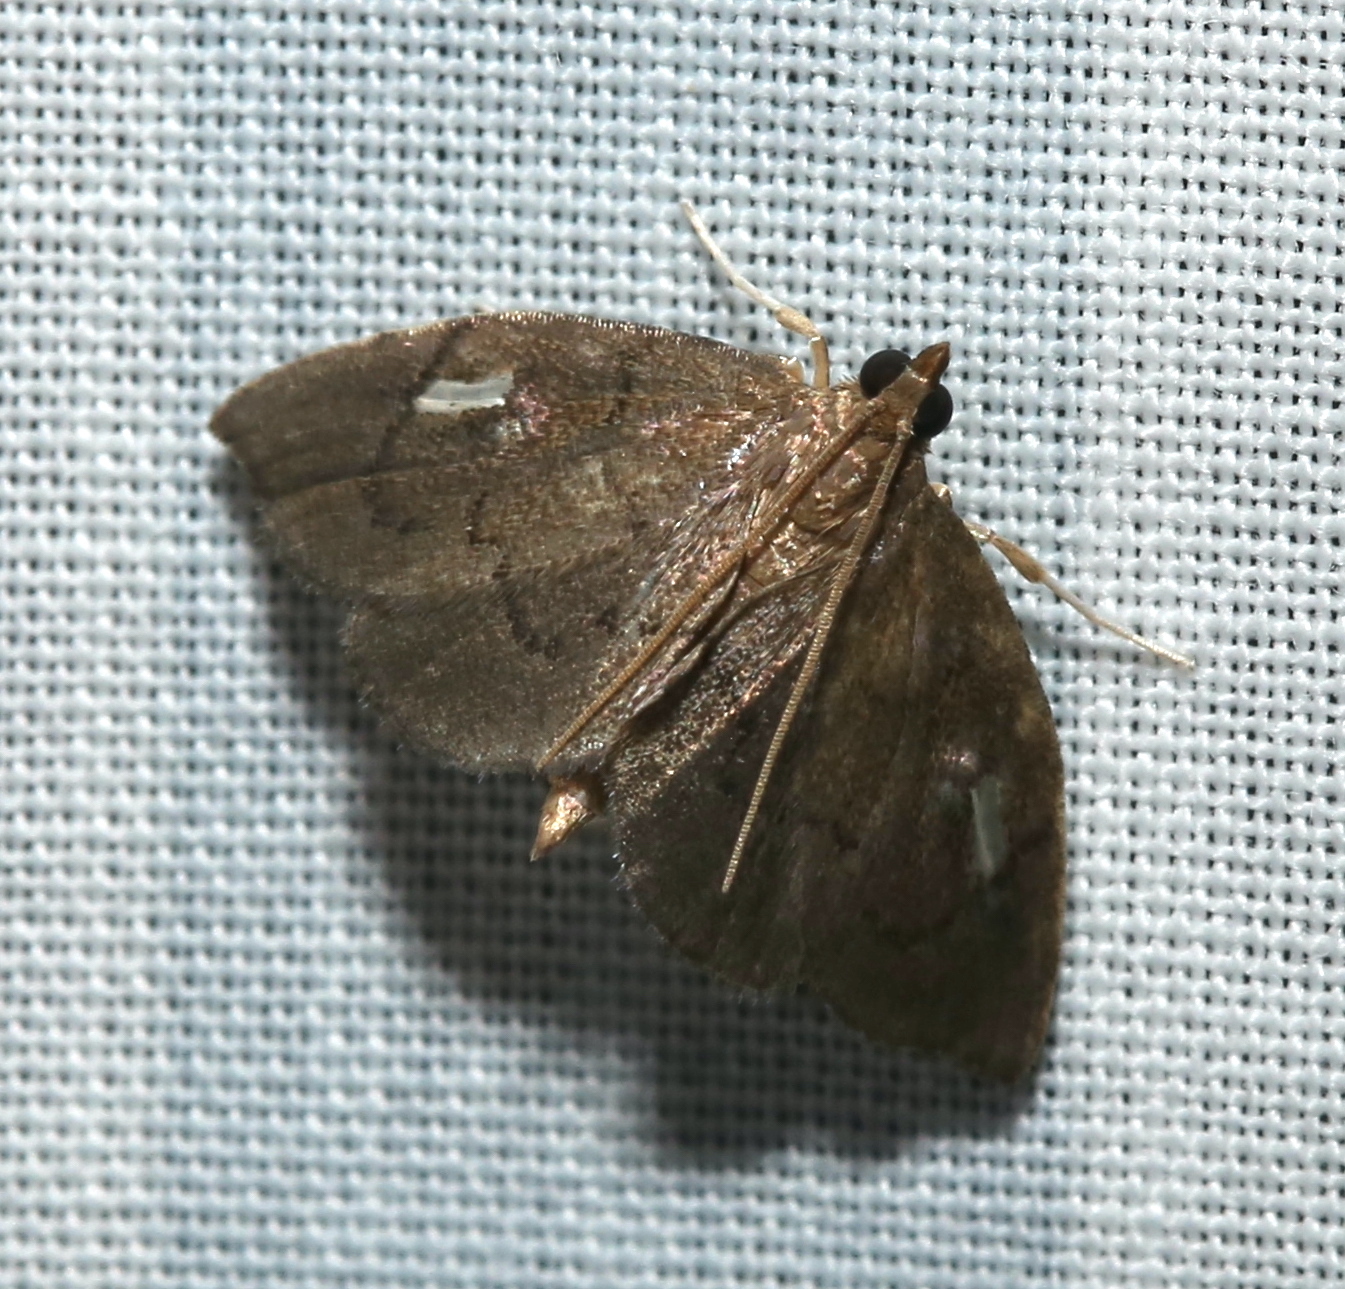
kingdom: Animalia
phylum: Arthropoda
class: Insecta
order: Lepidoptera
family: Crambidae
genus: Perispasta
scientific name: Perispasta caeculalis
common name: Titian peale's moth
